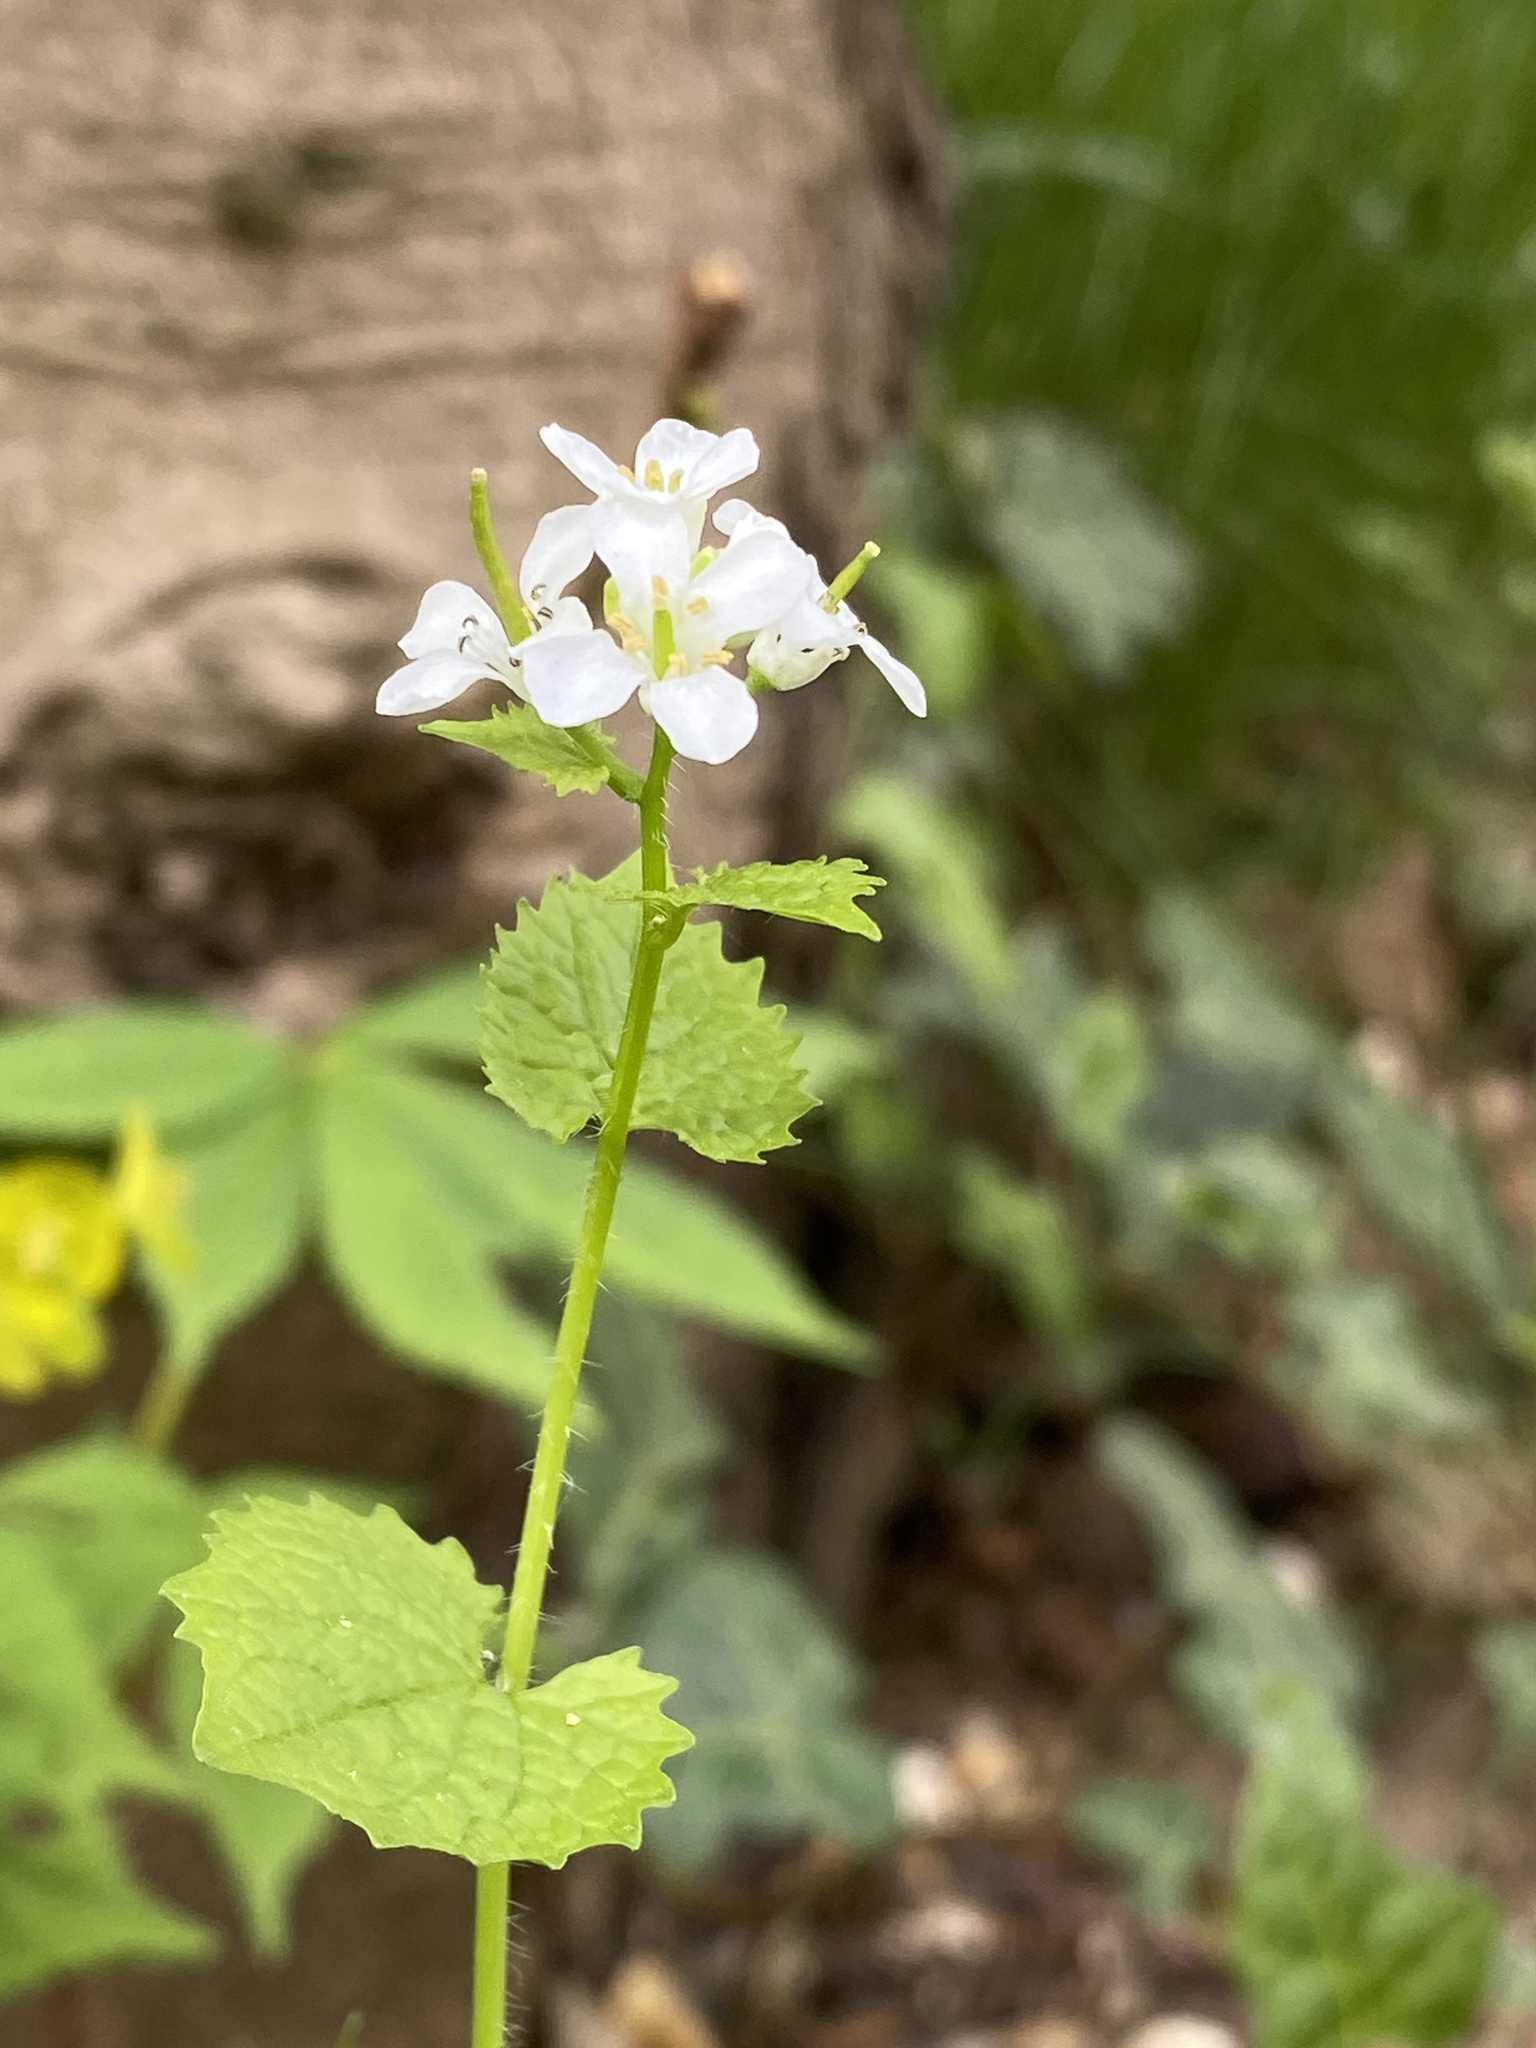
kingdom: Plantae
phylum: Tracheophyta
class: Magnoliopsida
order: Brassicales
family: Brassicaceae
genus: Alliaria
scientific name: Alliaria petiolata
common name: Garlic mustard
